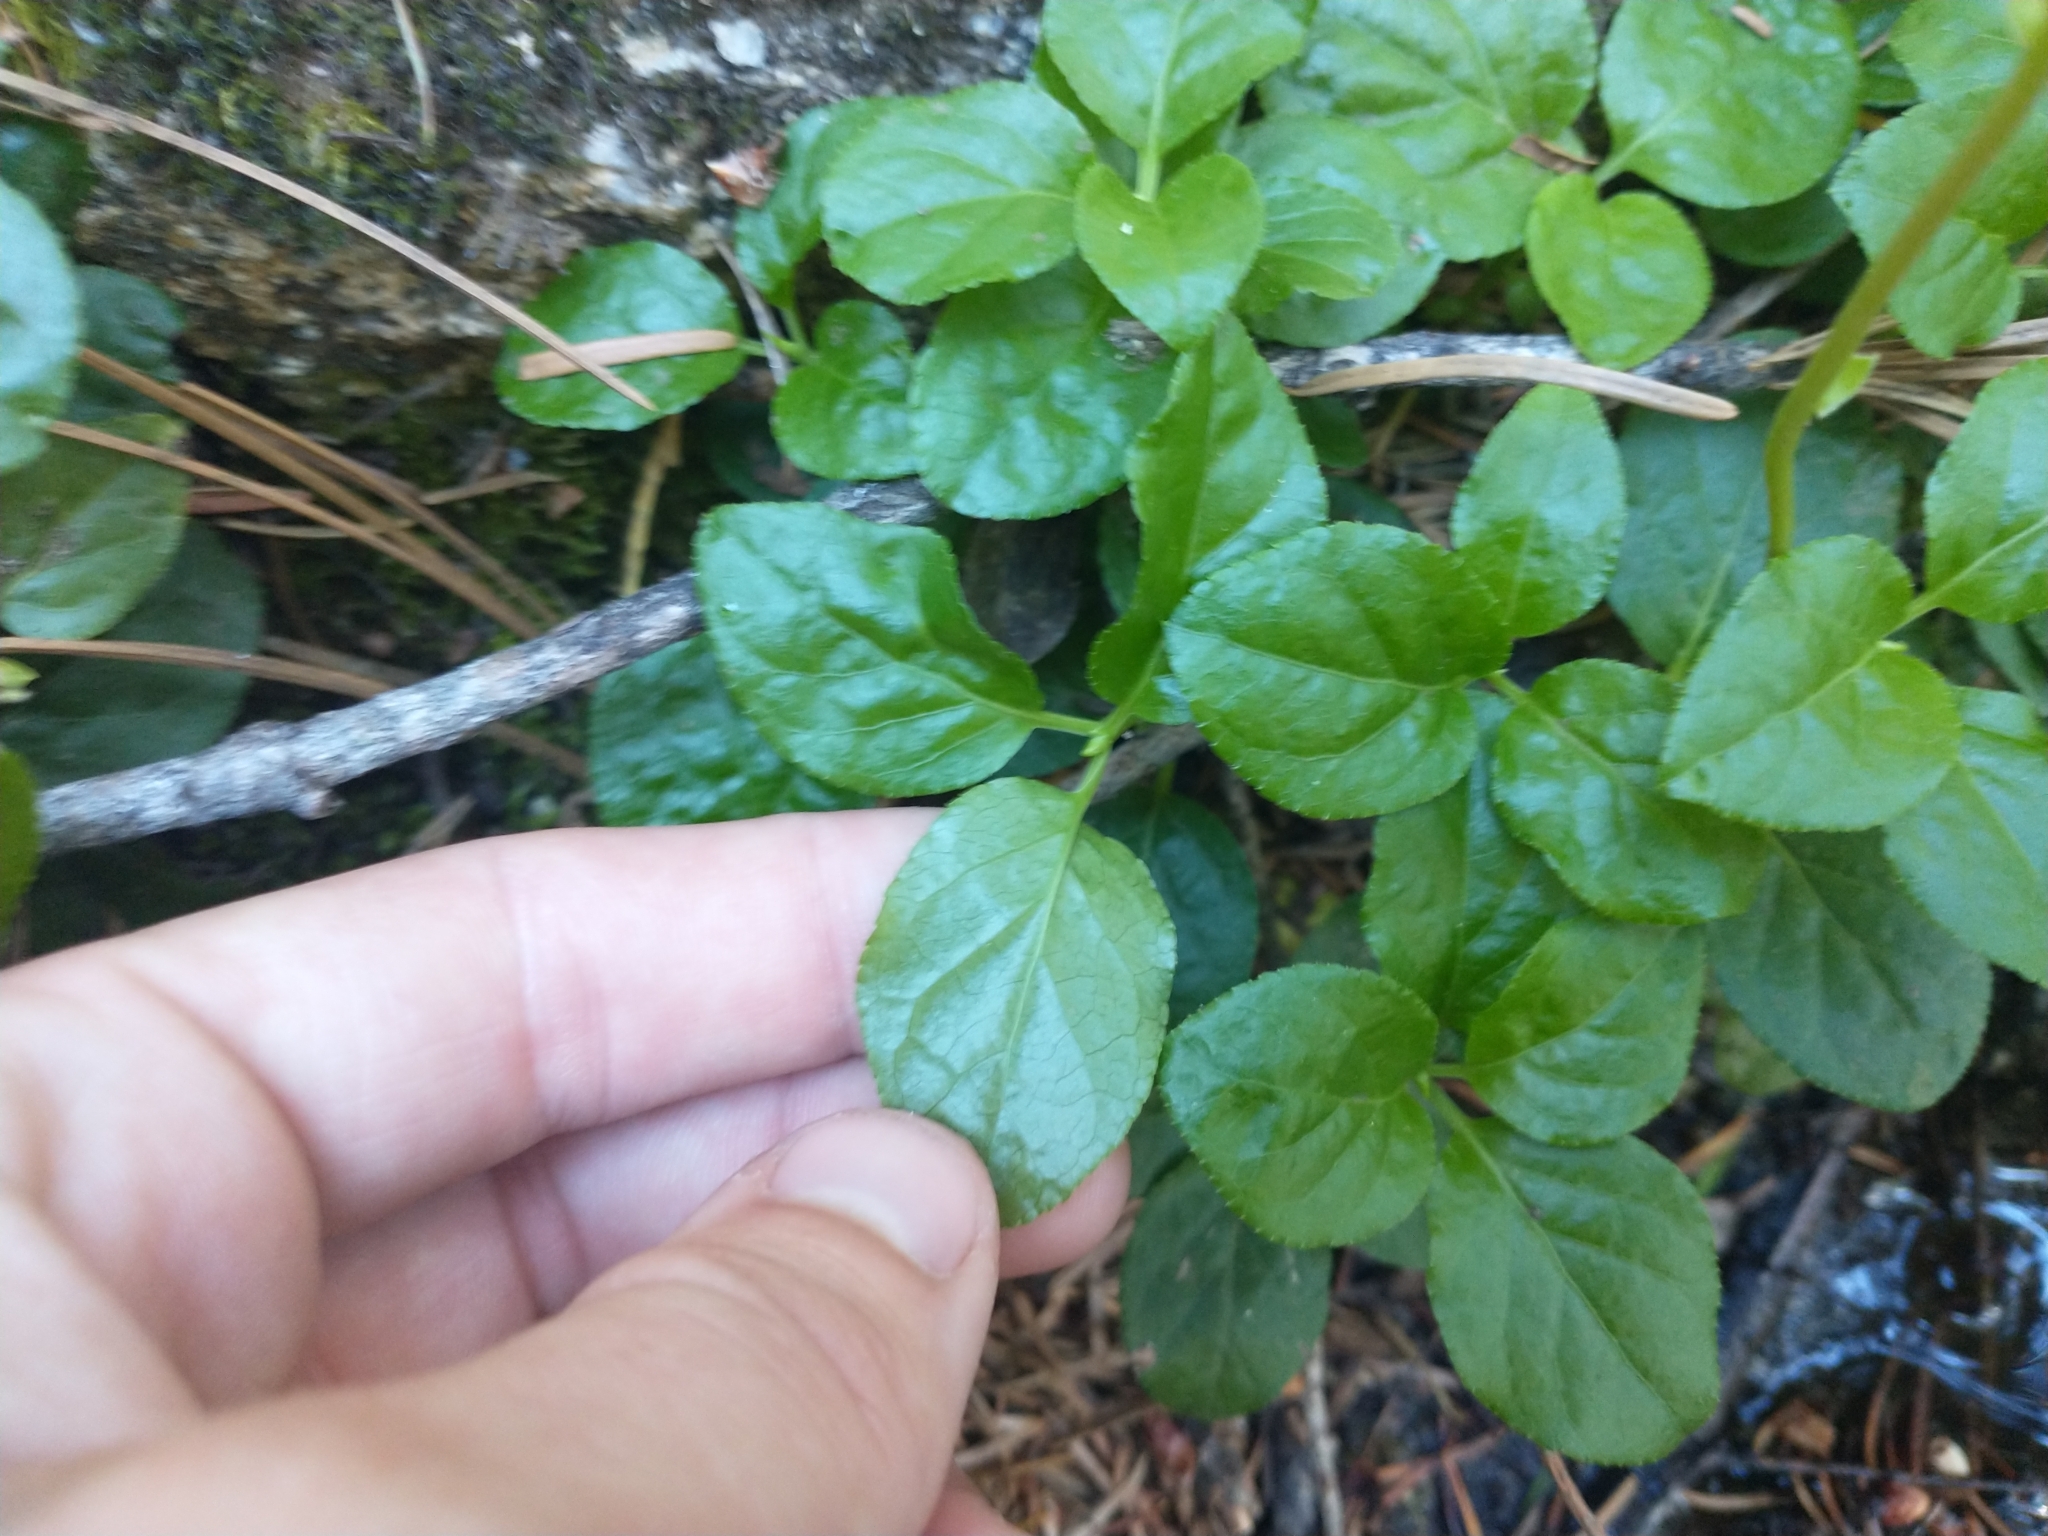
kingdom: Plantae
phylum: Tracheophyta
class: Magnoliopsida
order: Ericales
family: Ericaceae
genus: Orthilia
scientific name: Orthilia secunda
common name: One-sided orthilia
